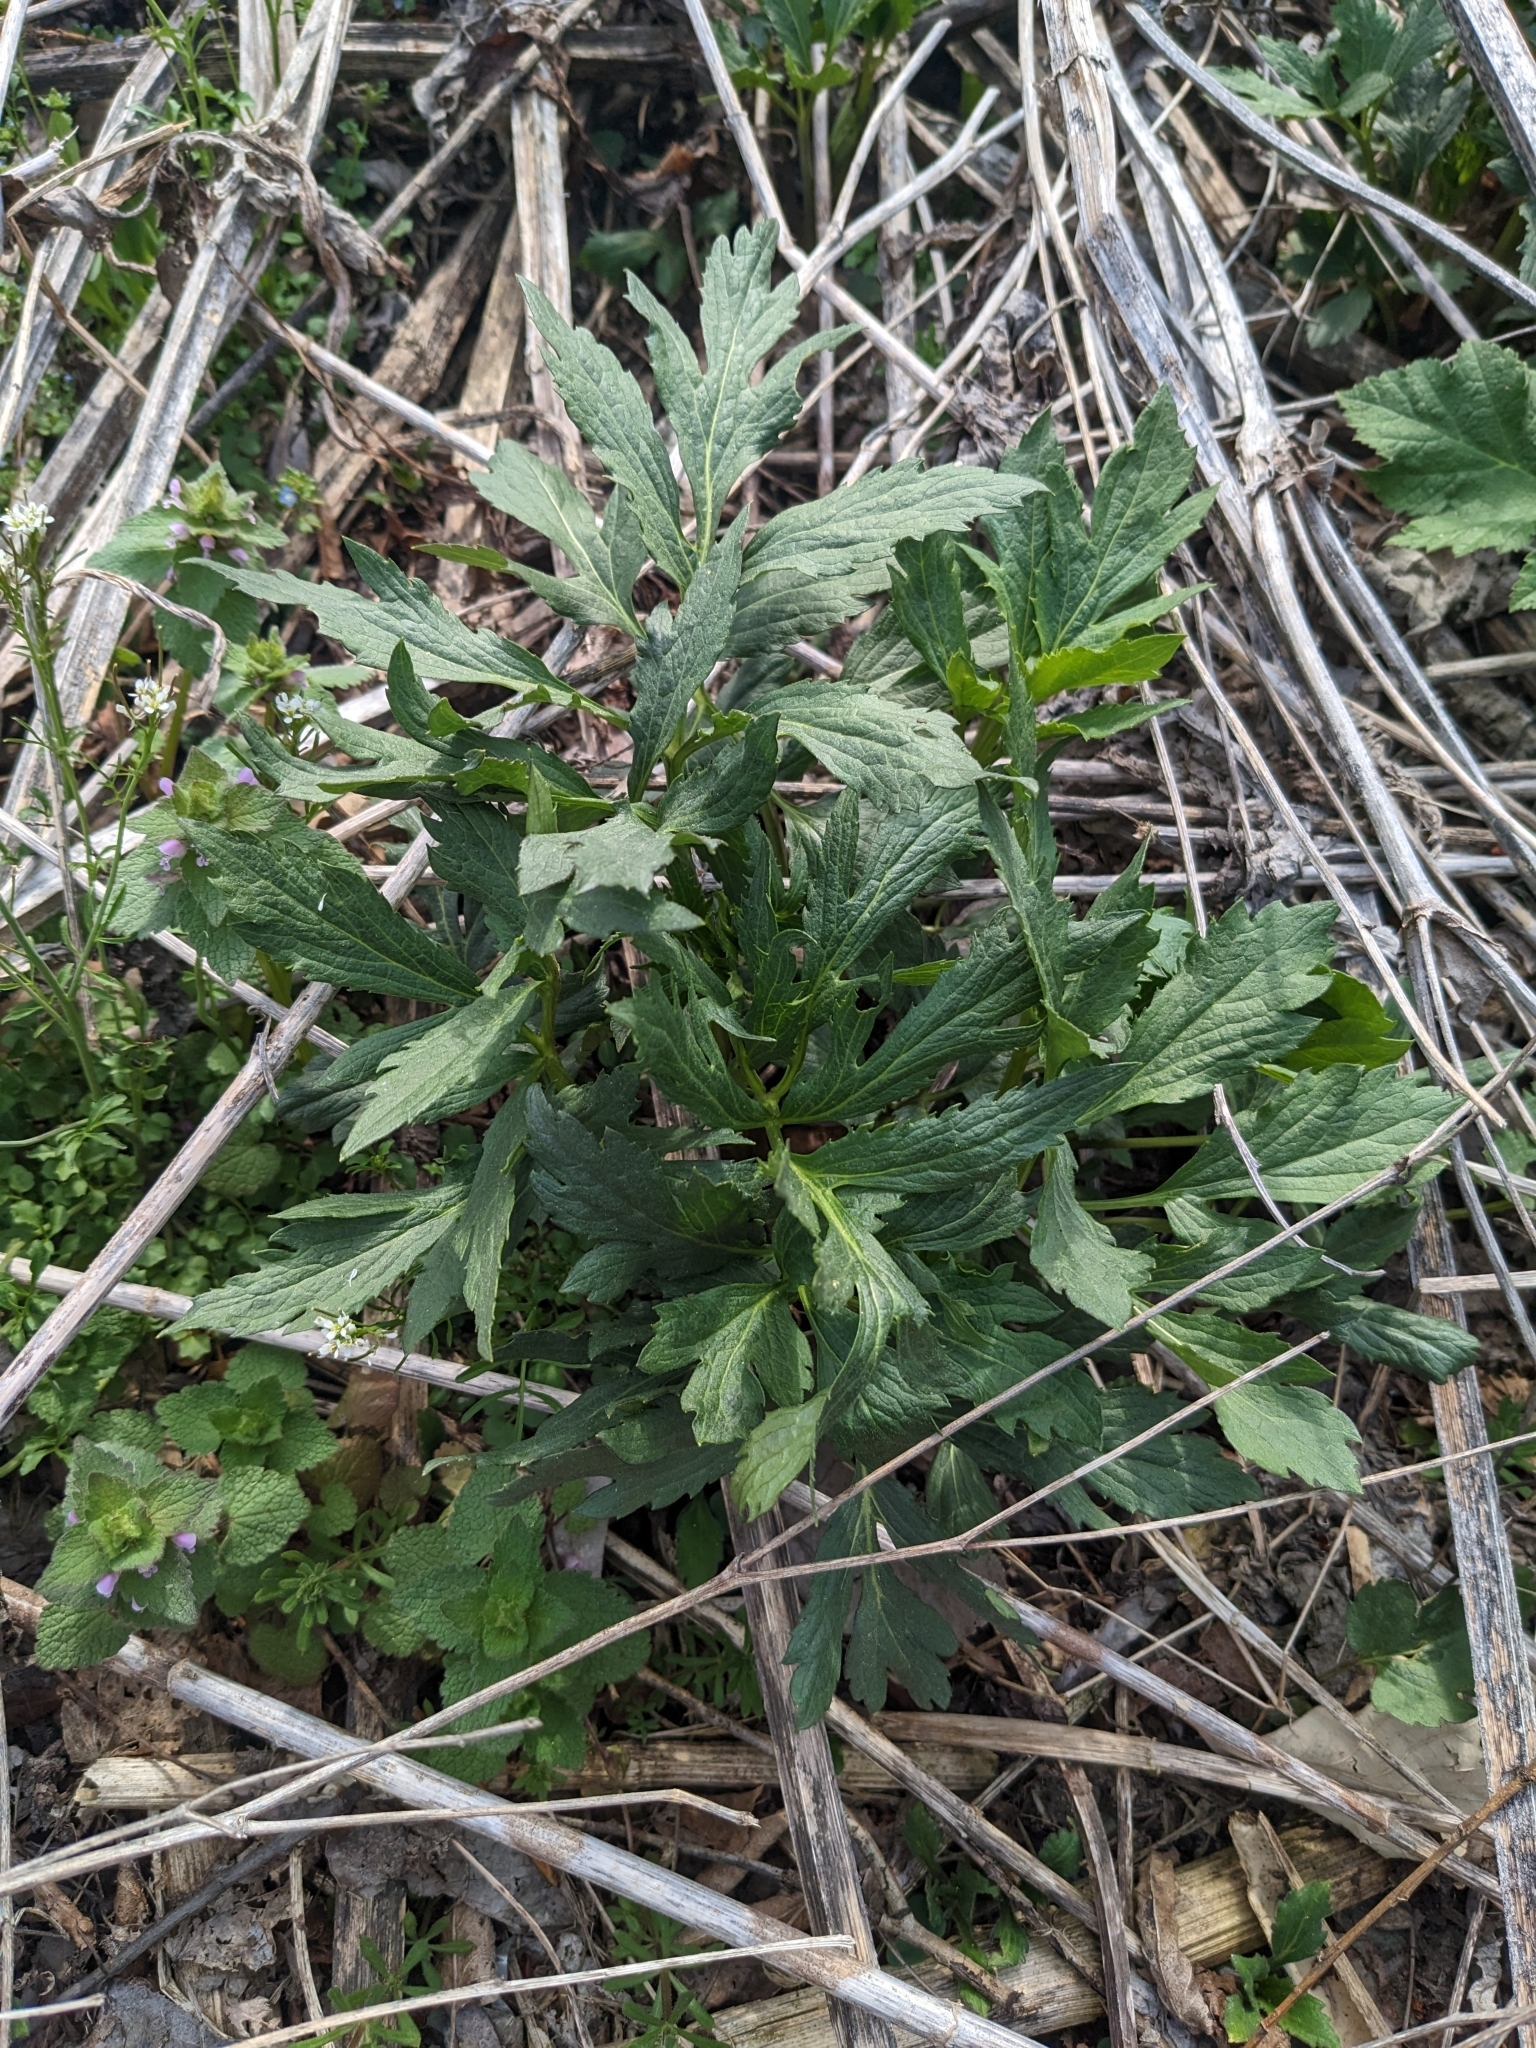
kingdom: Plantae
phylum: Tracheophyta
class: Magnoliopsida
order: Asterales
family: Asteraceae
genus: Rudbeckia
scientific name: Rudbeckia laciniata
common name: Coneflower
